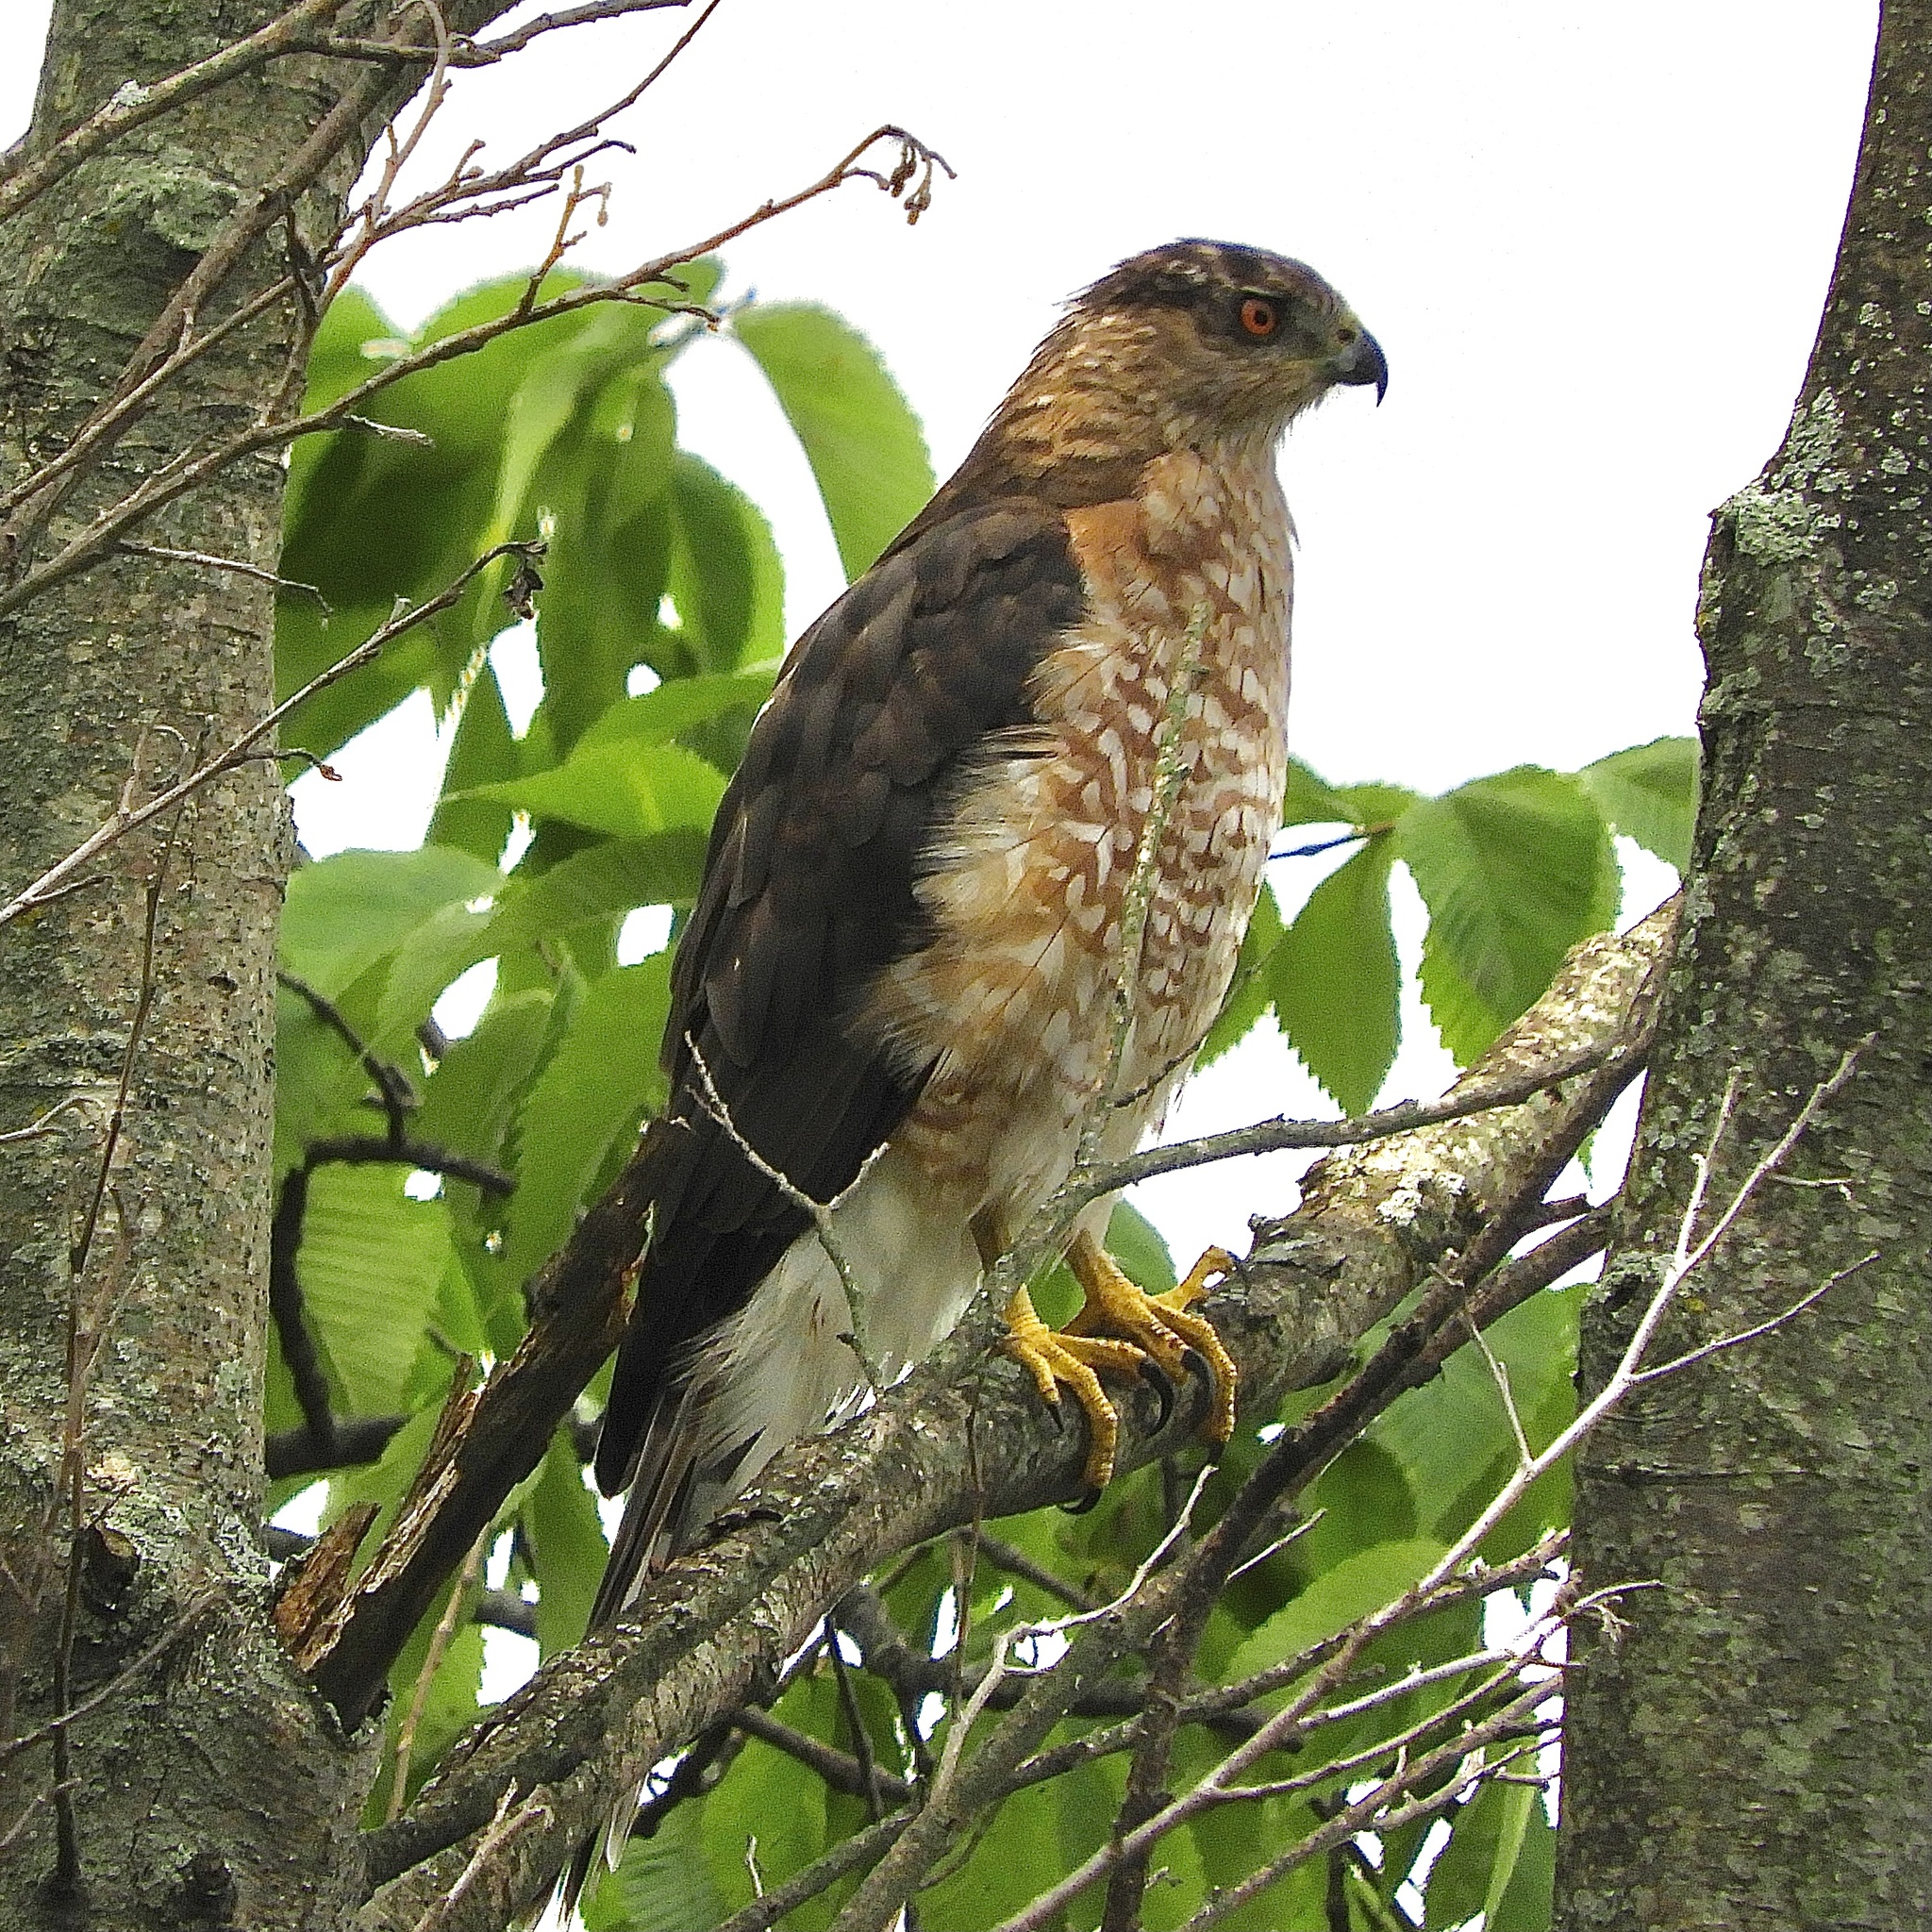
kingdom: Animalia
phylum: Chordata
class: Aves
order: Accipitriformes
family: Accipitridae
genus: Accipiter
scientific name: Accipiter cooperii
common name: Cooper's hawk
